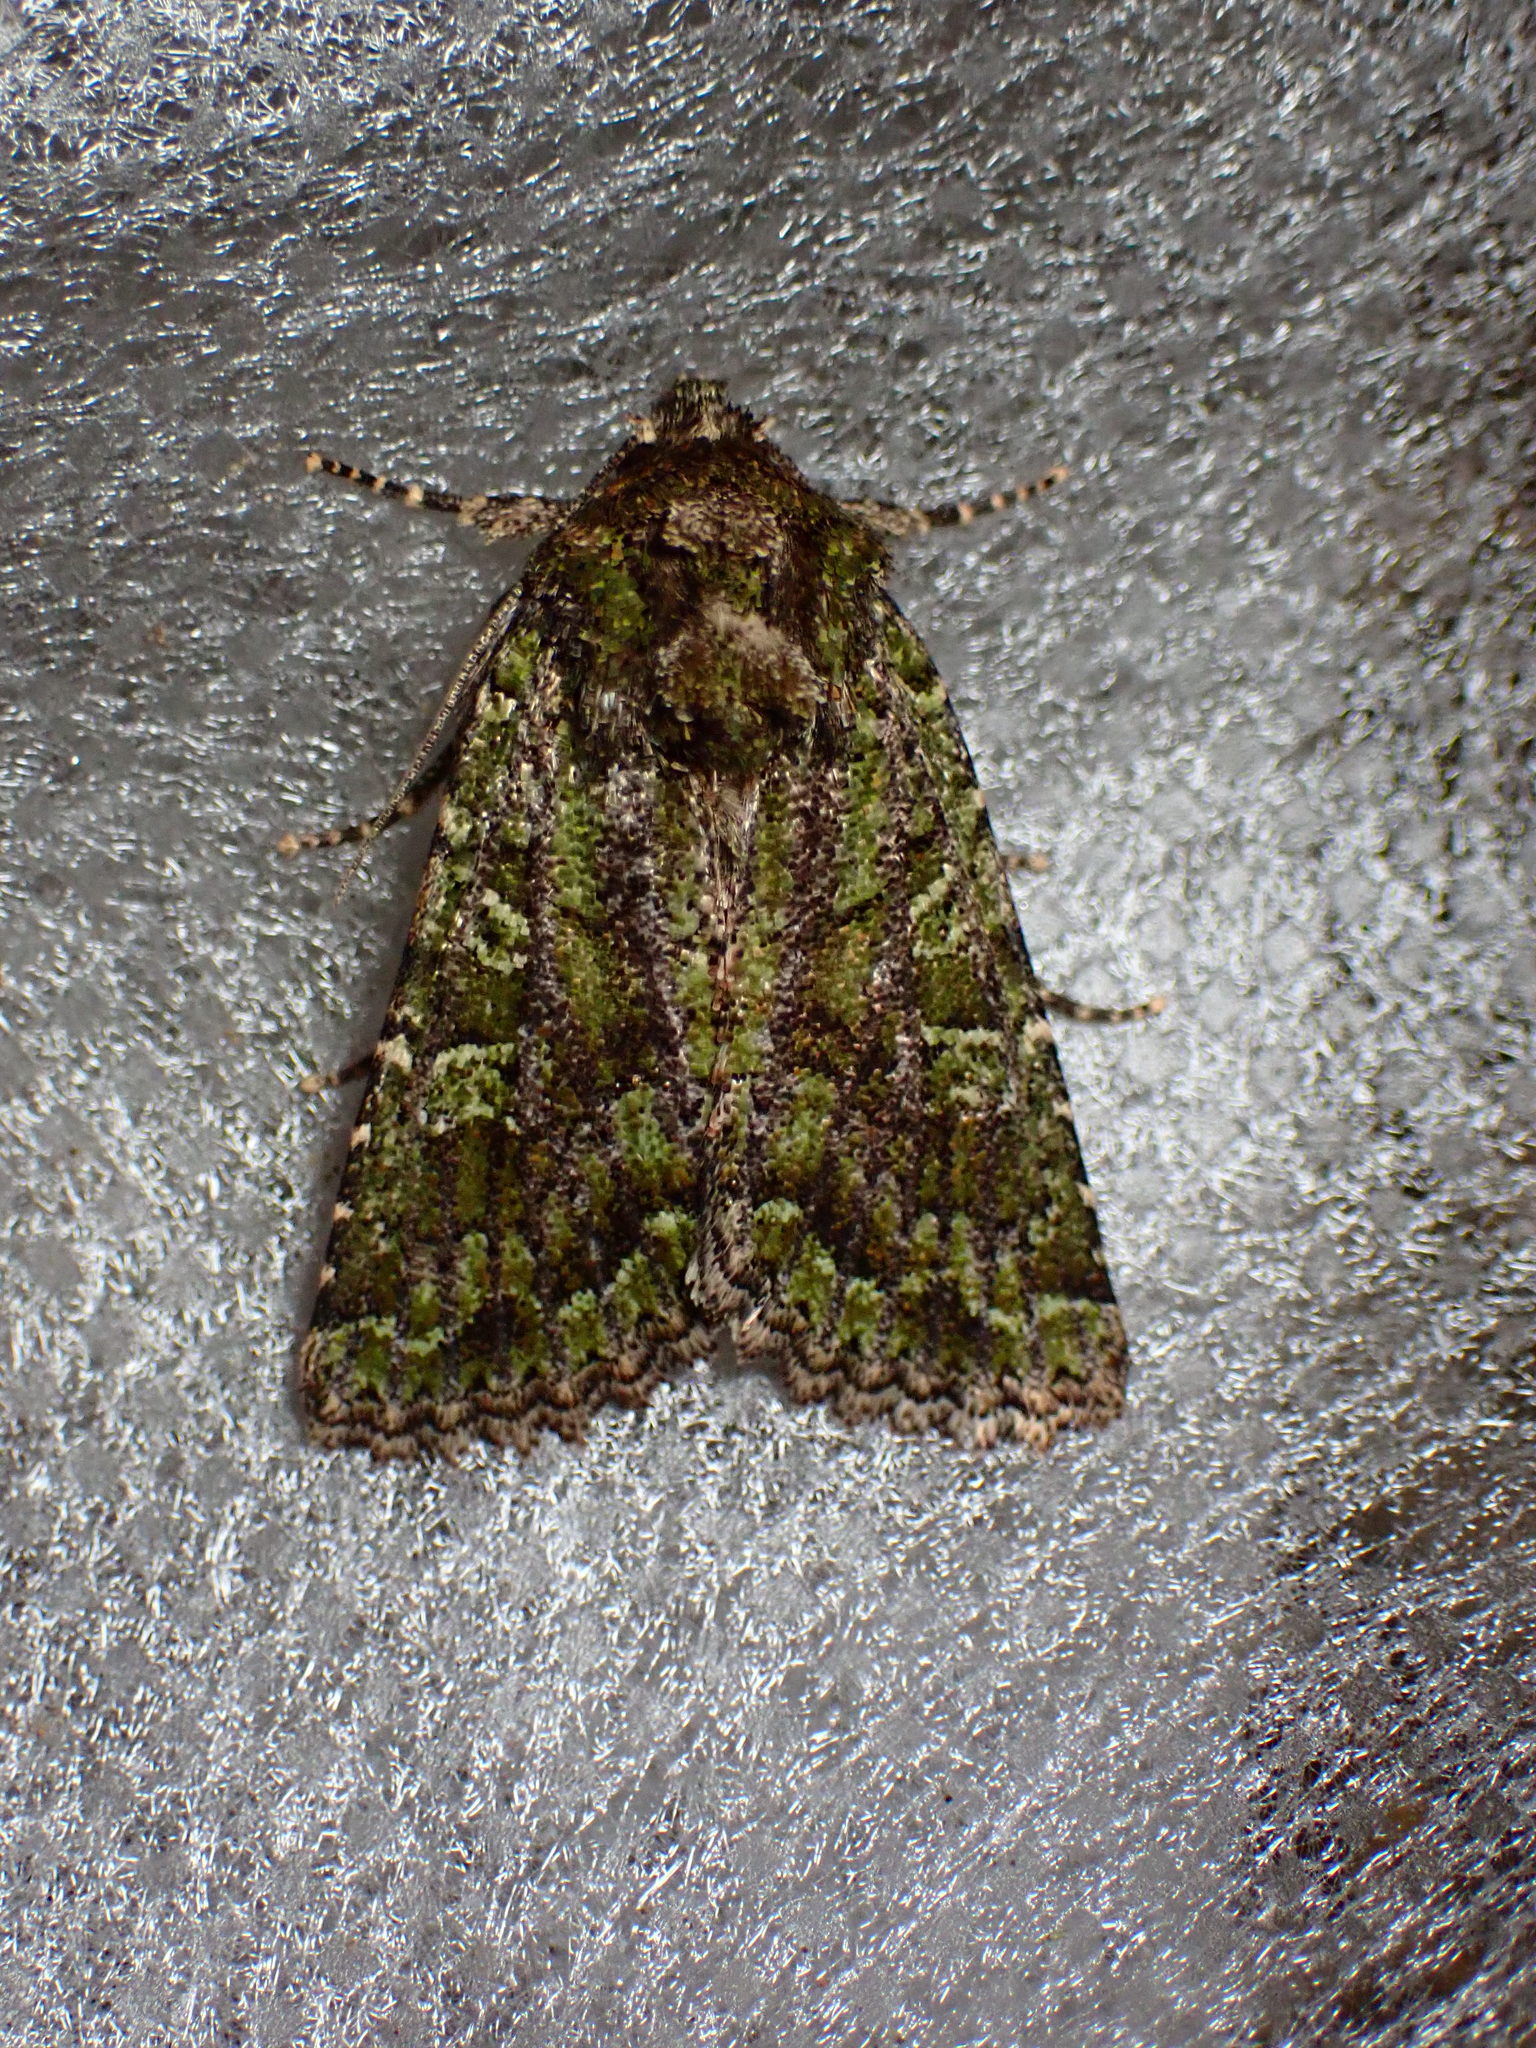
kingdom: Animalia
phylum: Arthropoda
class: Insecta
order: Lepidoptera
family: Noctuidae
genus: Aseptis
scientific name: Aseptis marina
